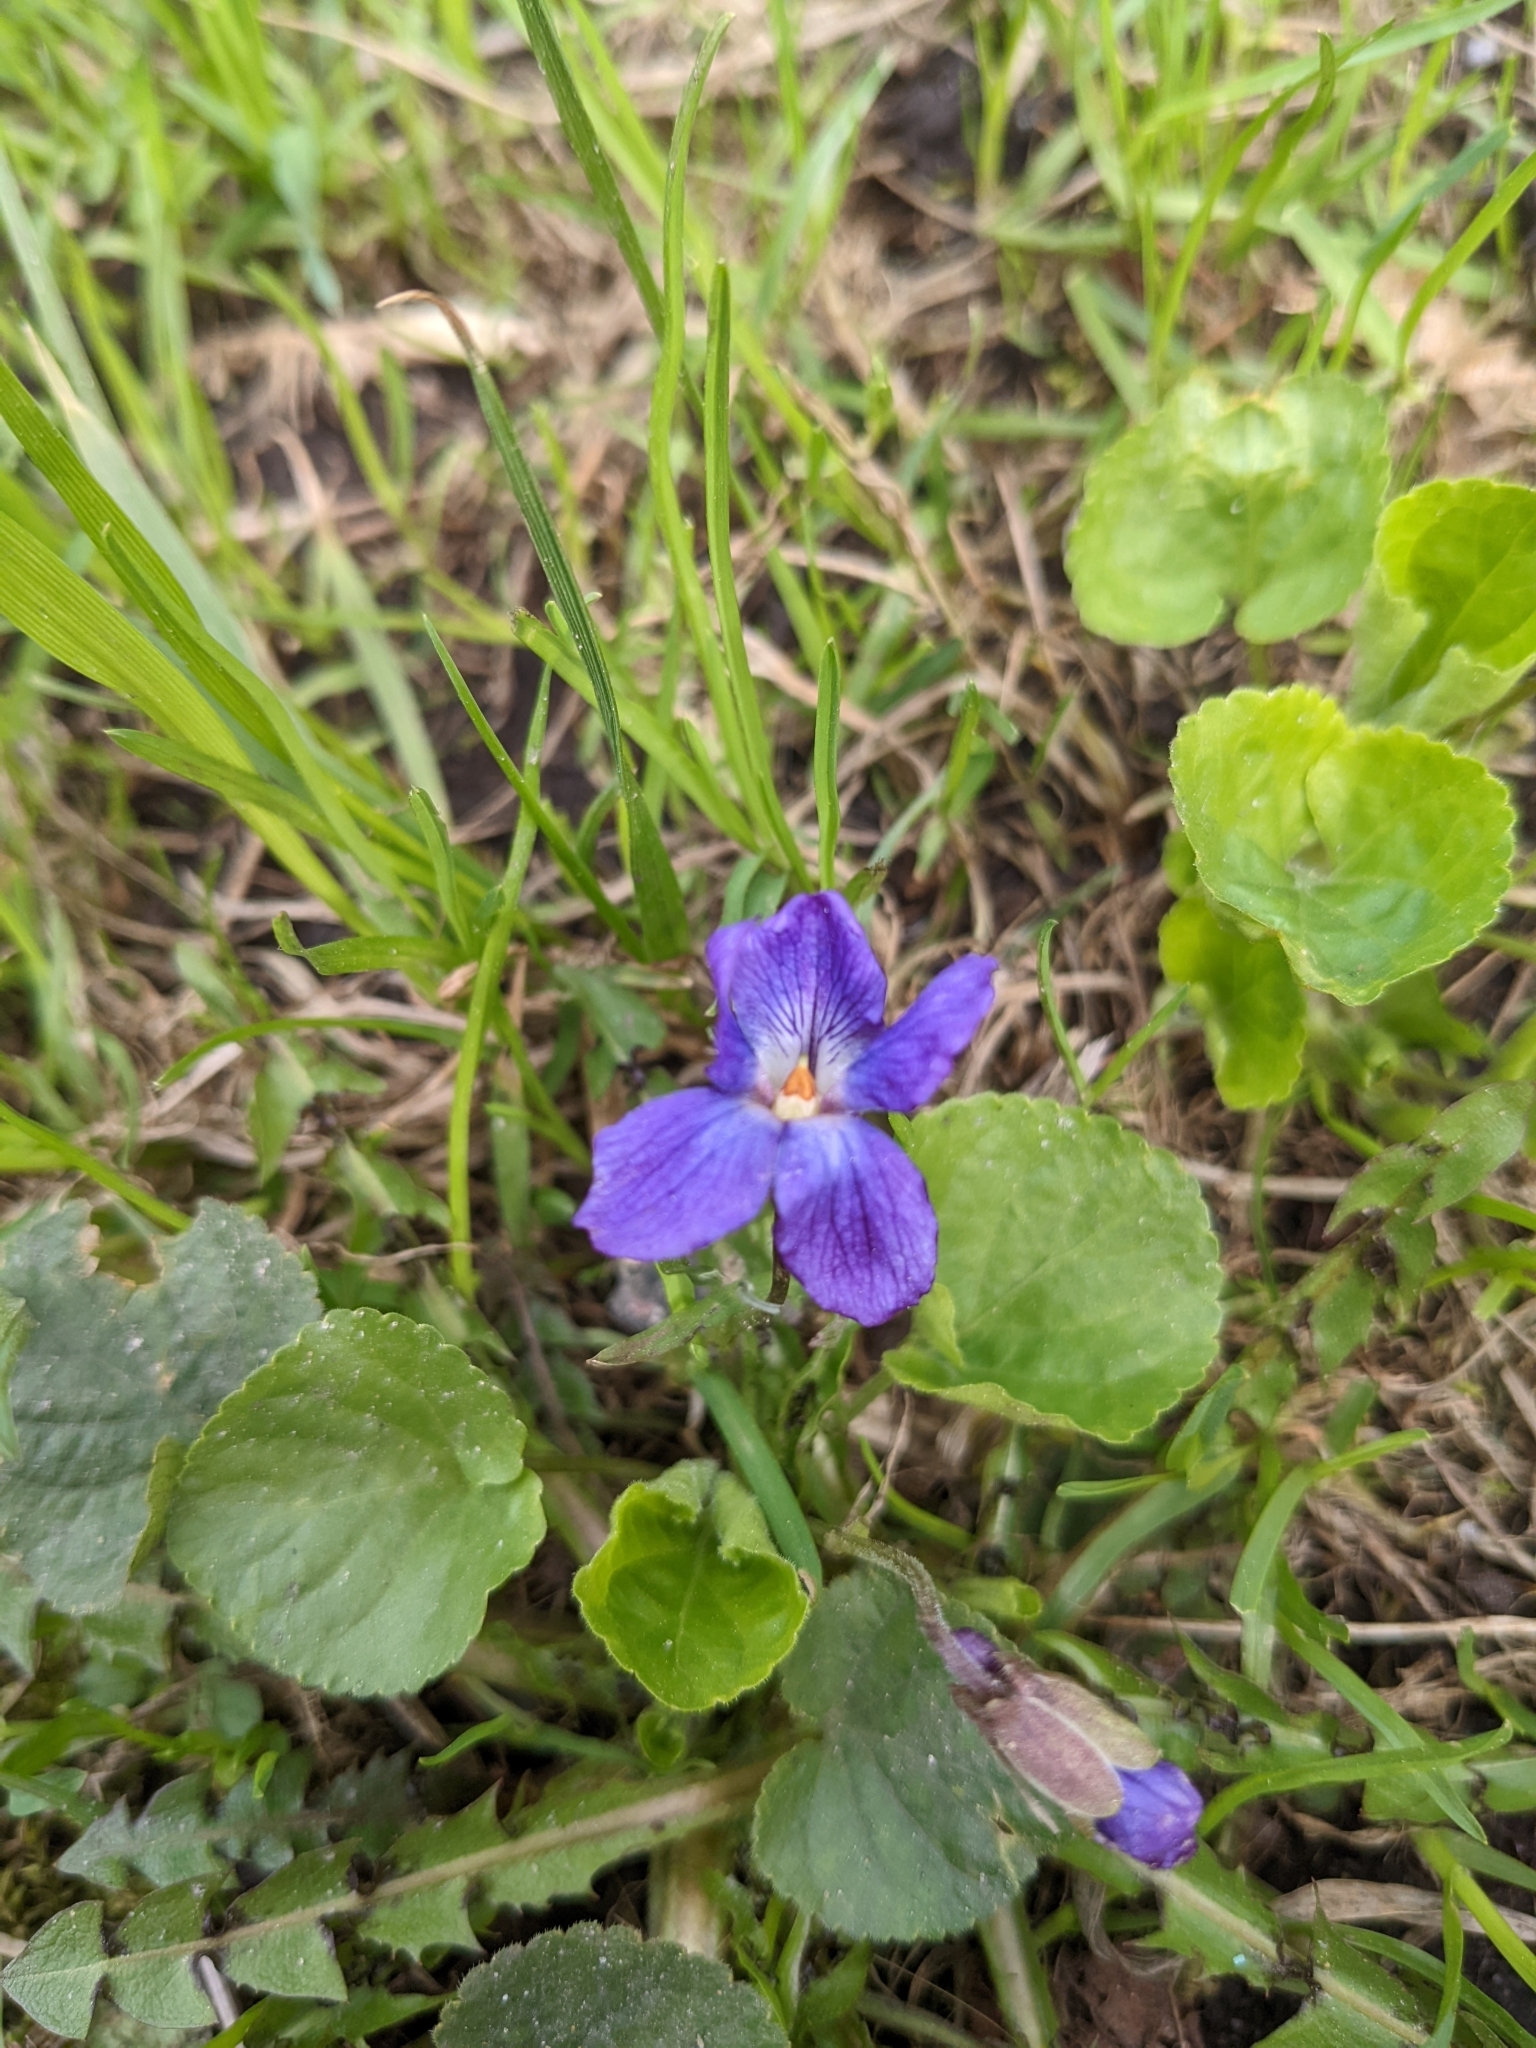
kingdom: Plantae
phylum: Tracheophyta
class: Magnoliopsida
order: Malpighiales
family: Violaceae
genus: Viola
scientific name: Viola odorata
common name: Sweet violet
